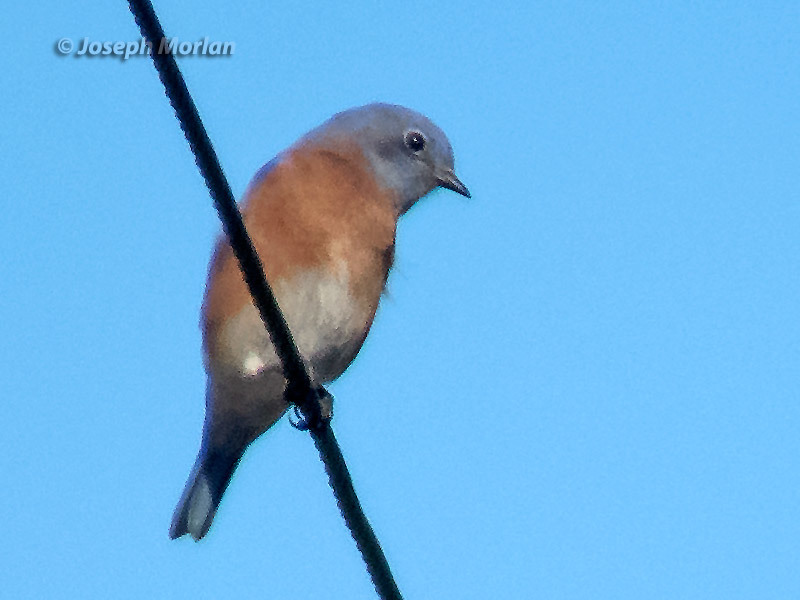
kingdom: Animalia
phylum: Chordata
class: Aves
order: Passeriformes
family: Turdidae
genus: Sialia
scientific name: Sialia mexicana
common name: Western bluebird
